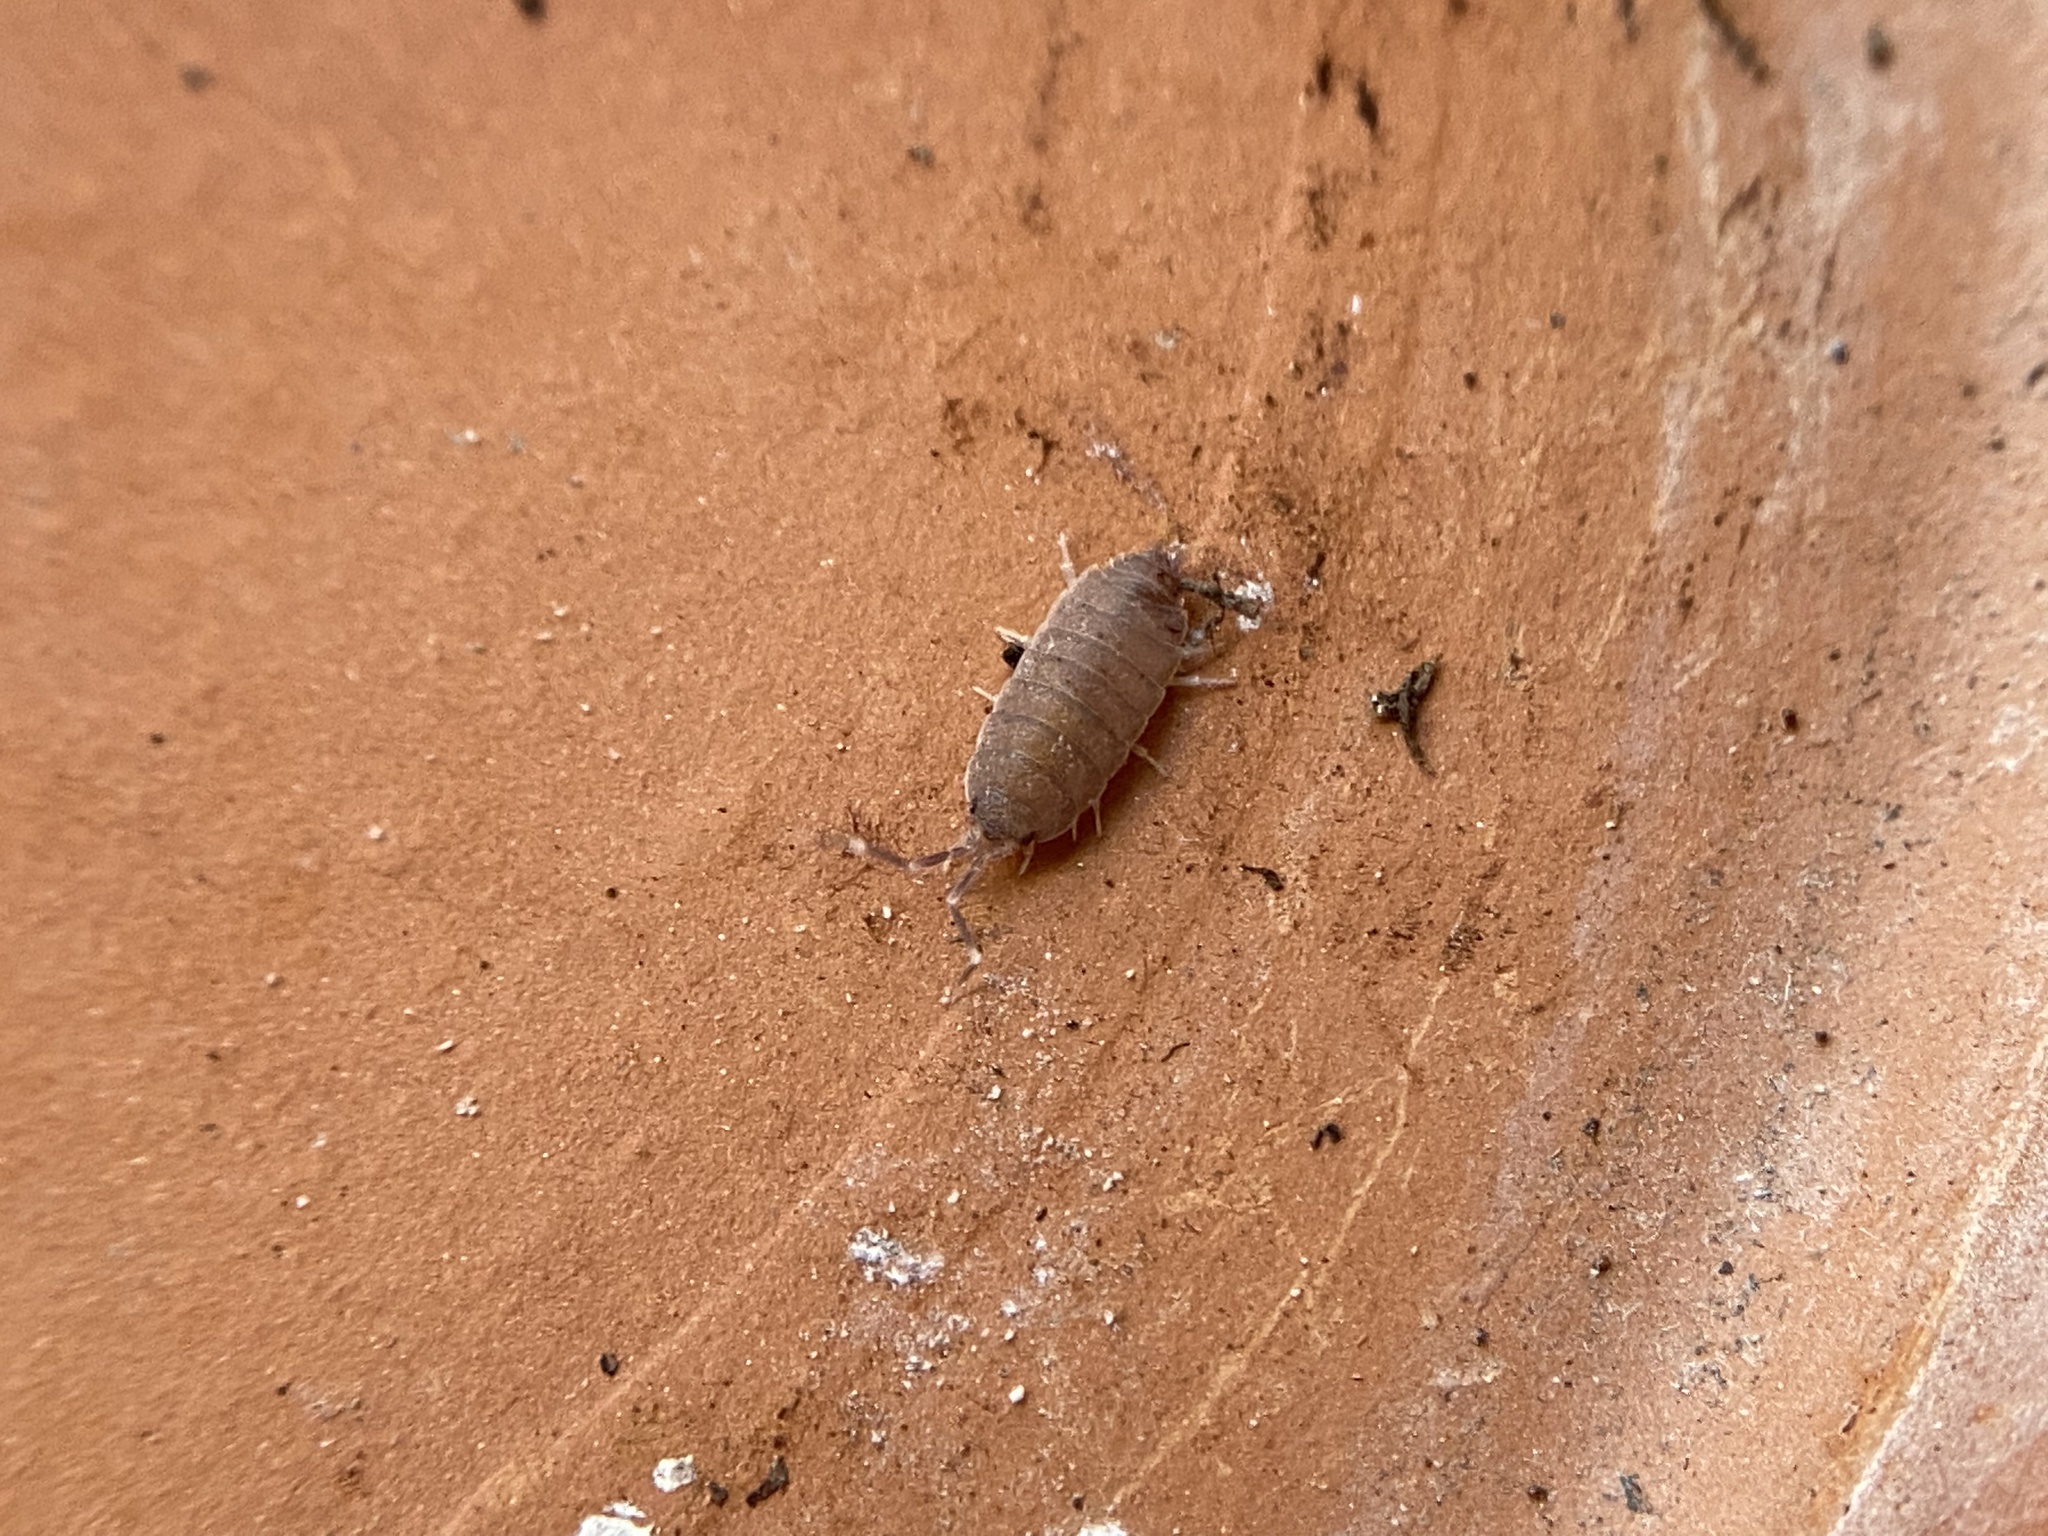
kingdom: Animalia
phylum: Arthropoda
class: Malacostraca
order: Isopoda
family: Porcellionidae
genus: Porcellionides
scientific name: Porcellionides pruinosus
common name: Plum woodlouse
